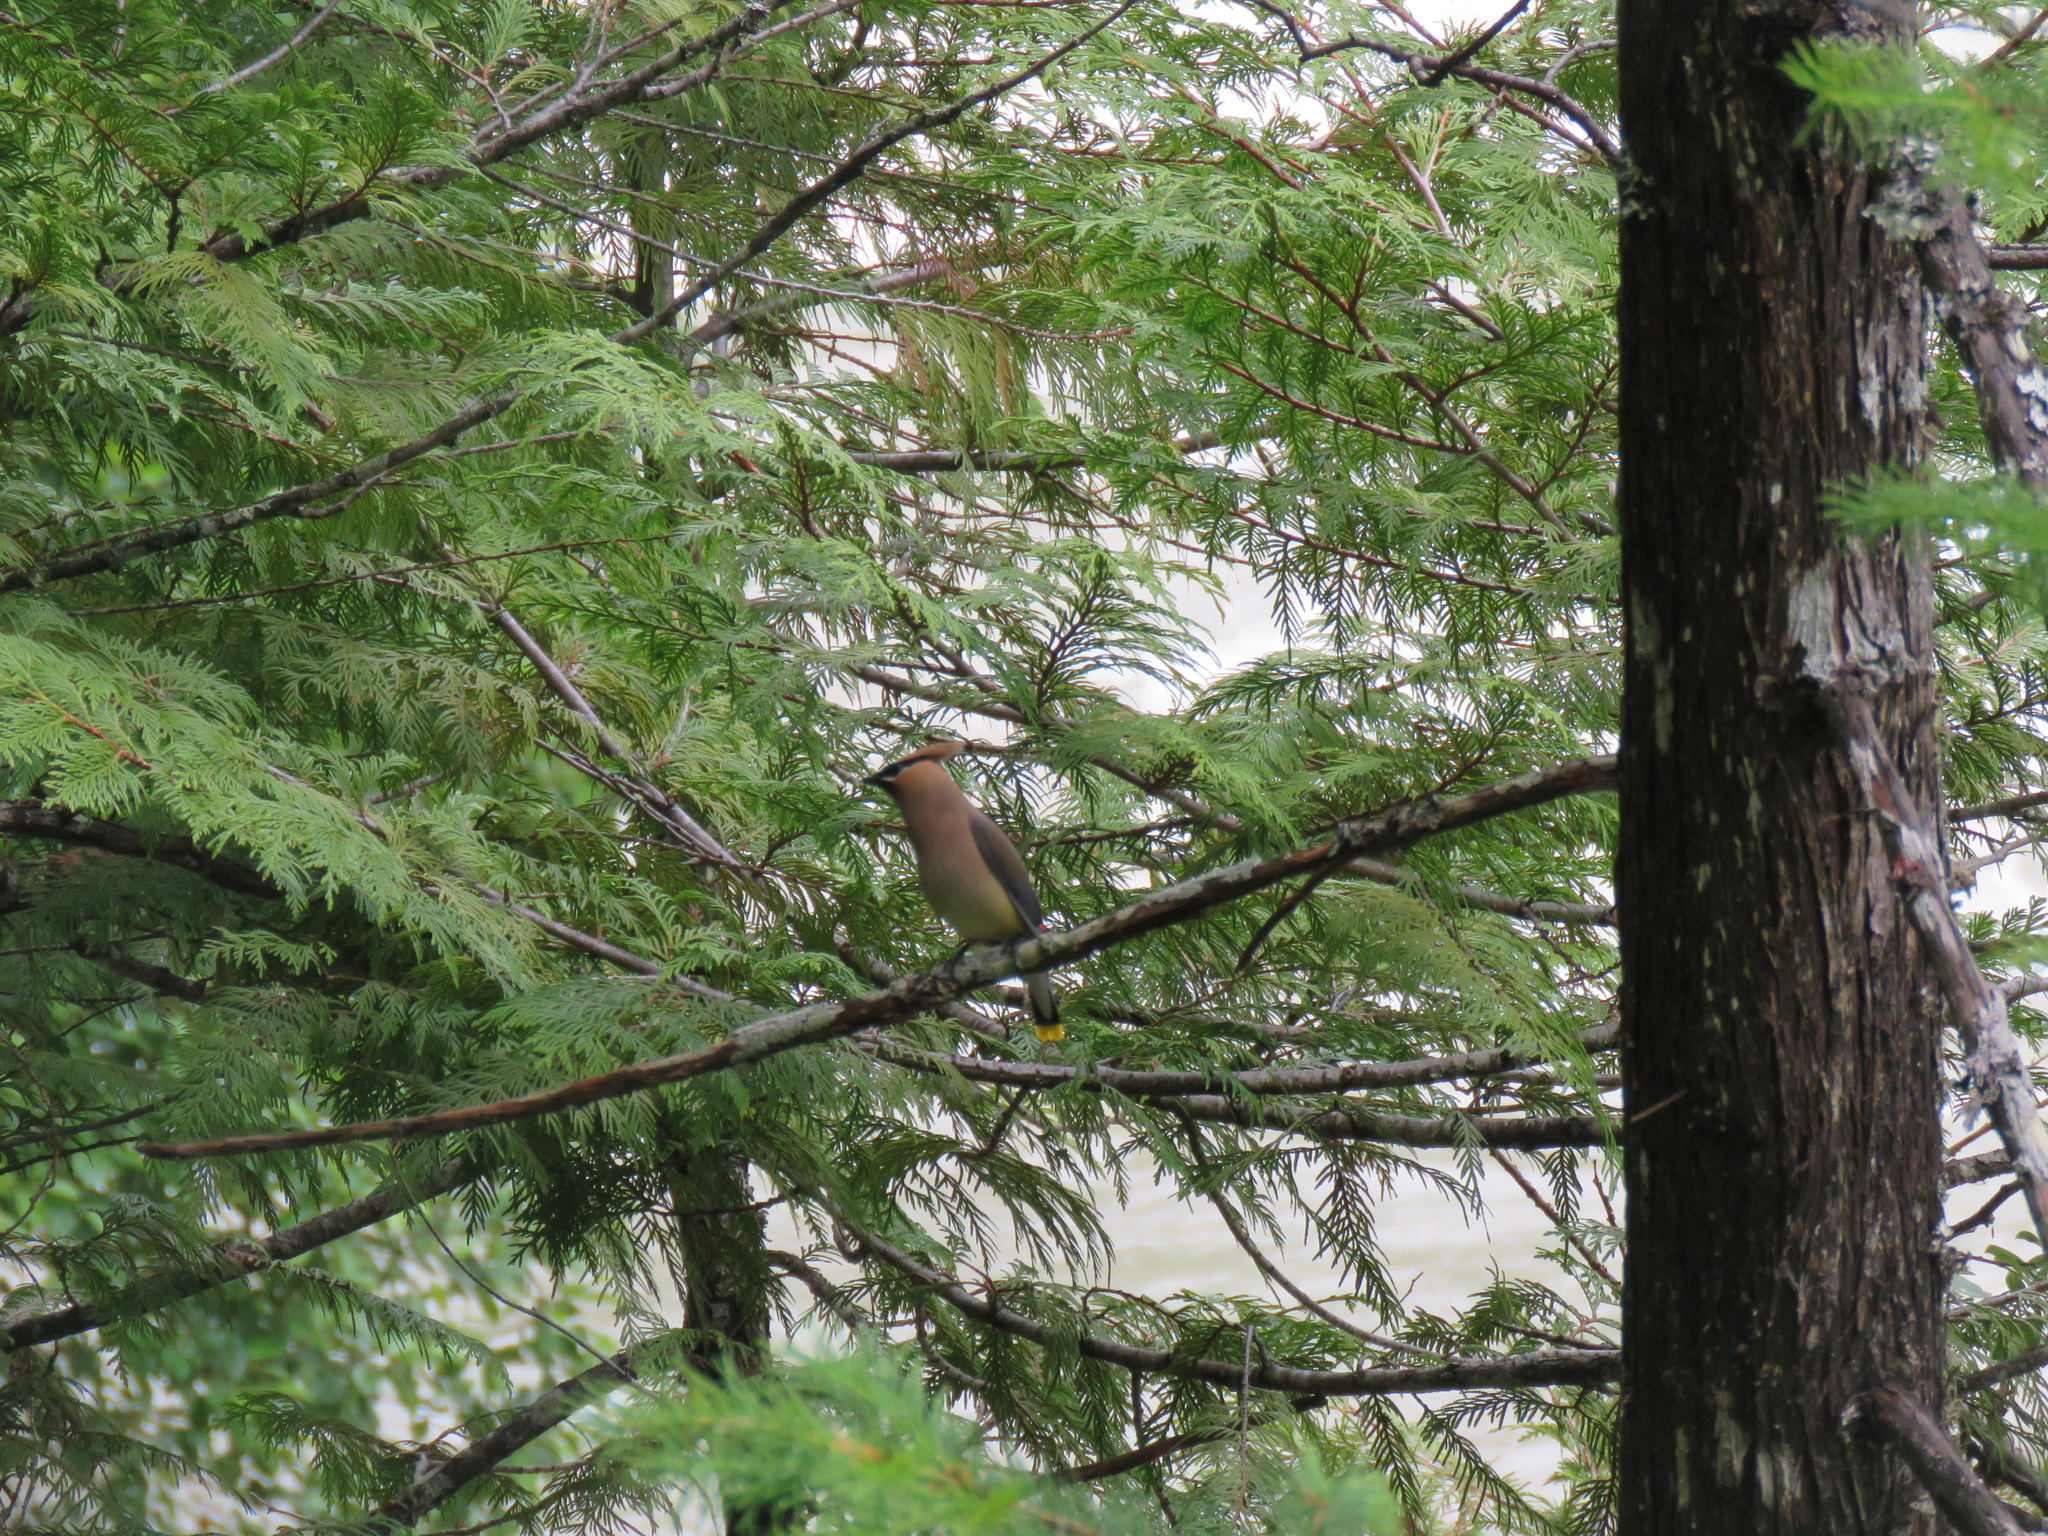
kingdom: Animalia
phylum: Chordata
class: Aves
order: Passeriformes
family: Bombycillidae
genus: Bombycilla
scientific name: Bombycilla cedrorum
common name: Cedar waxwing
